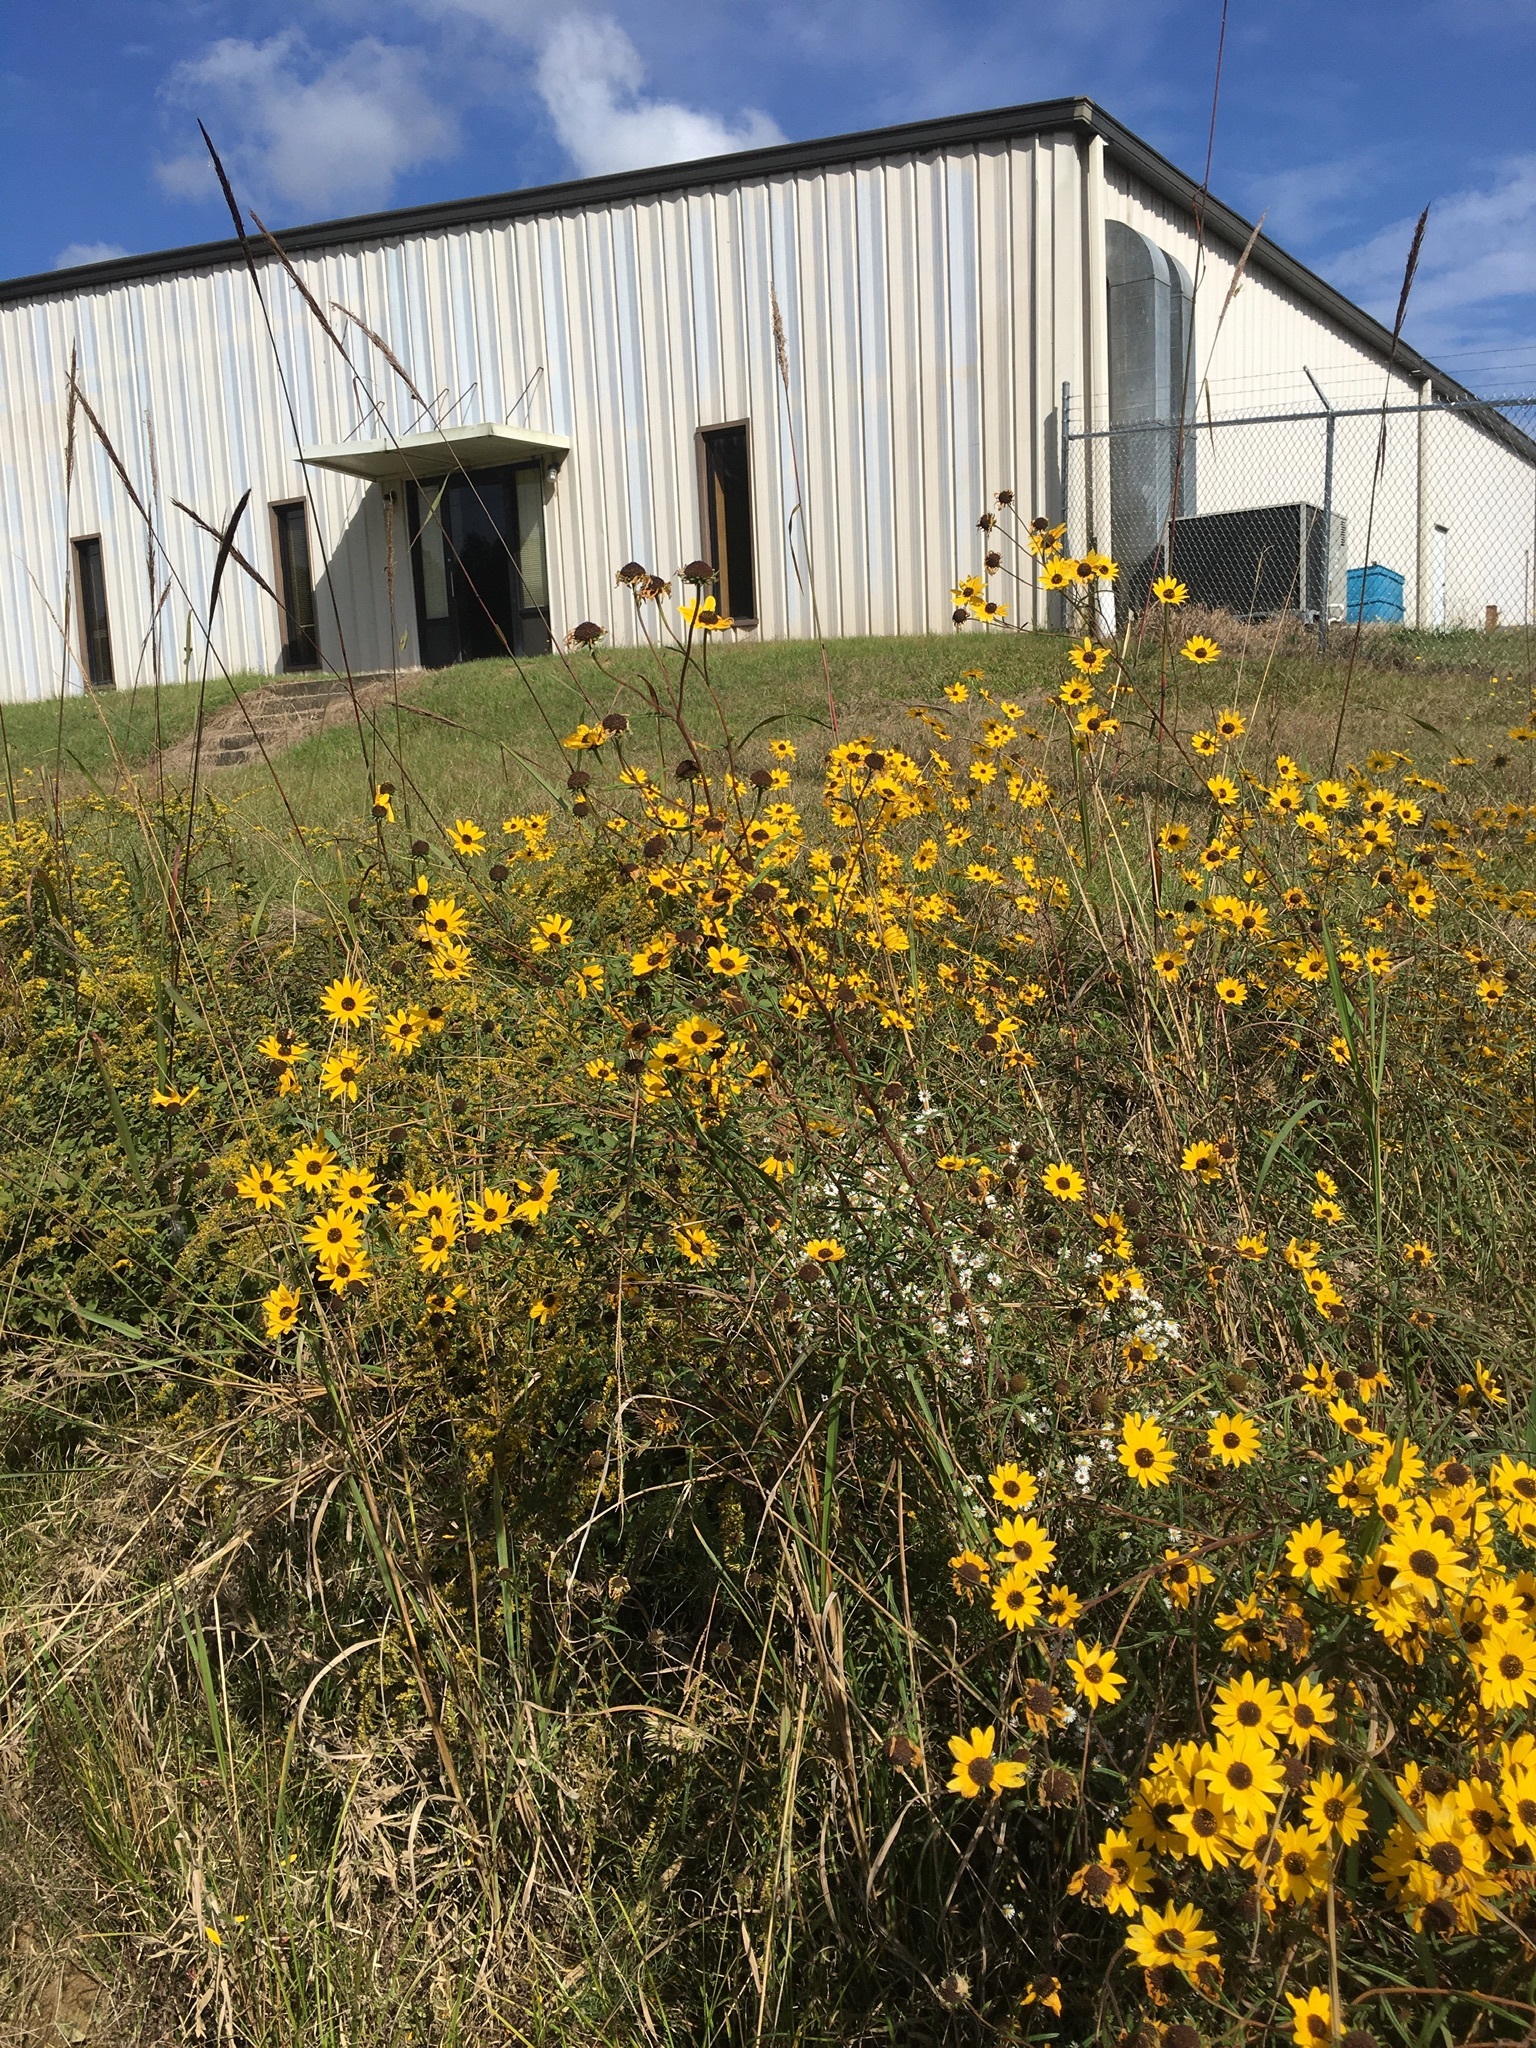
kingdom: Plantae
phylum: Tracheophyta
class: Magnoliopsida
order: Asterales
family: Asteraceae
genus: Helianthus
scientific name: Helianthus angustifolius
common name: Swamp sunflower
